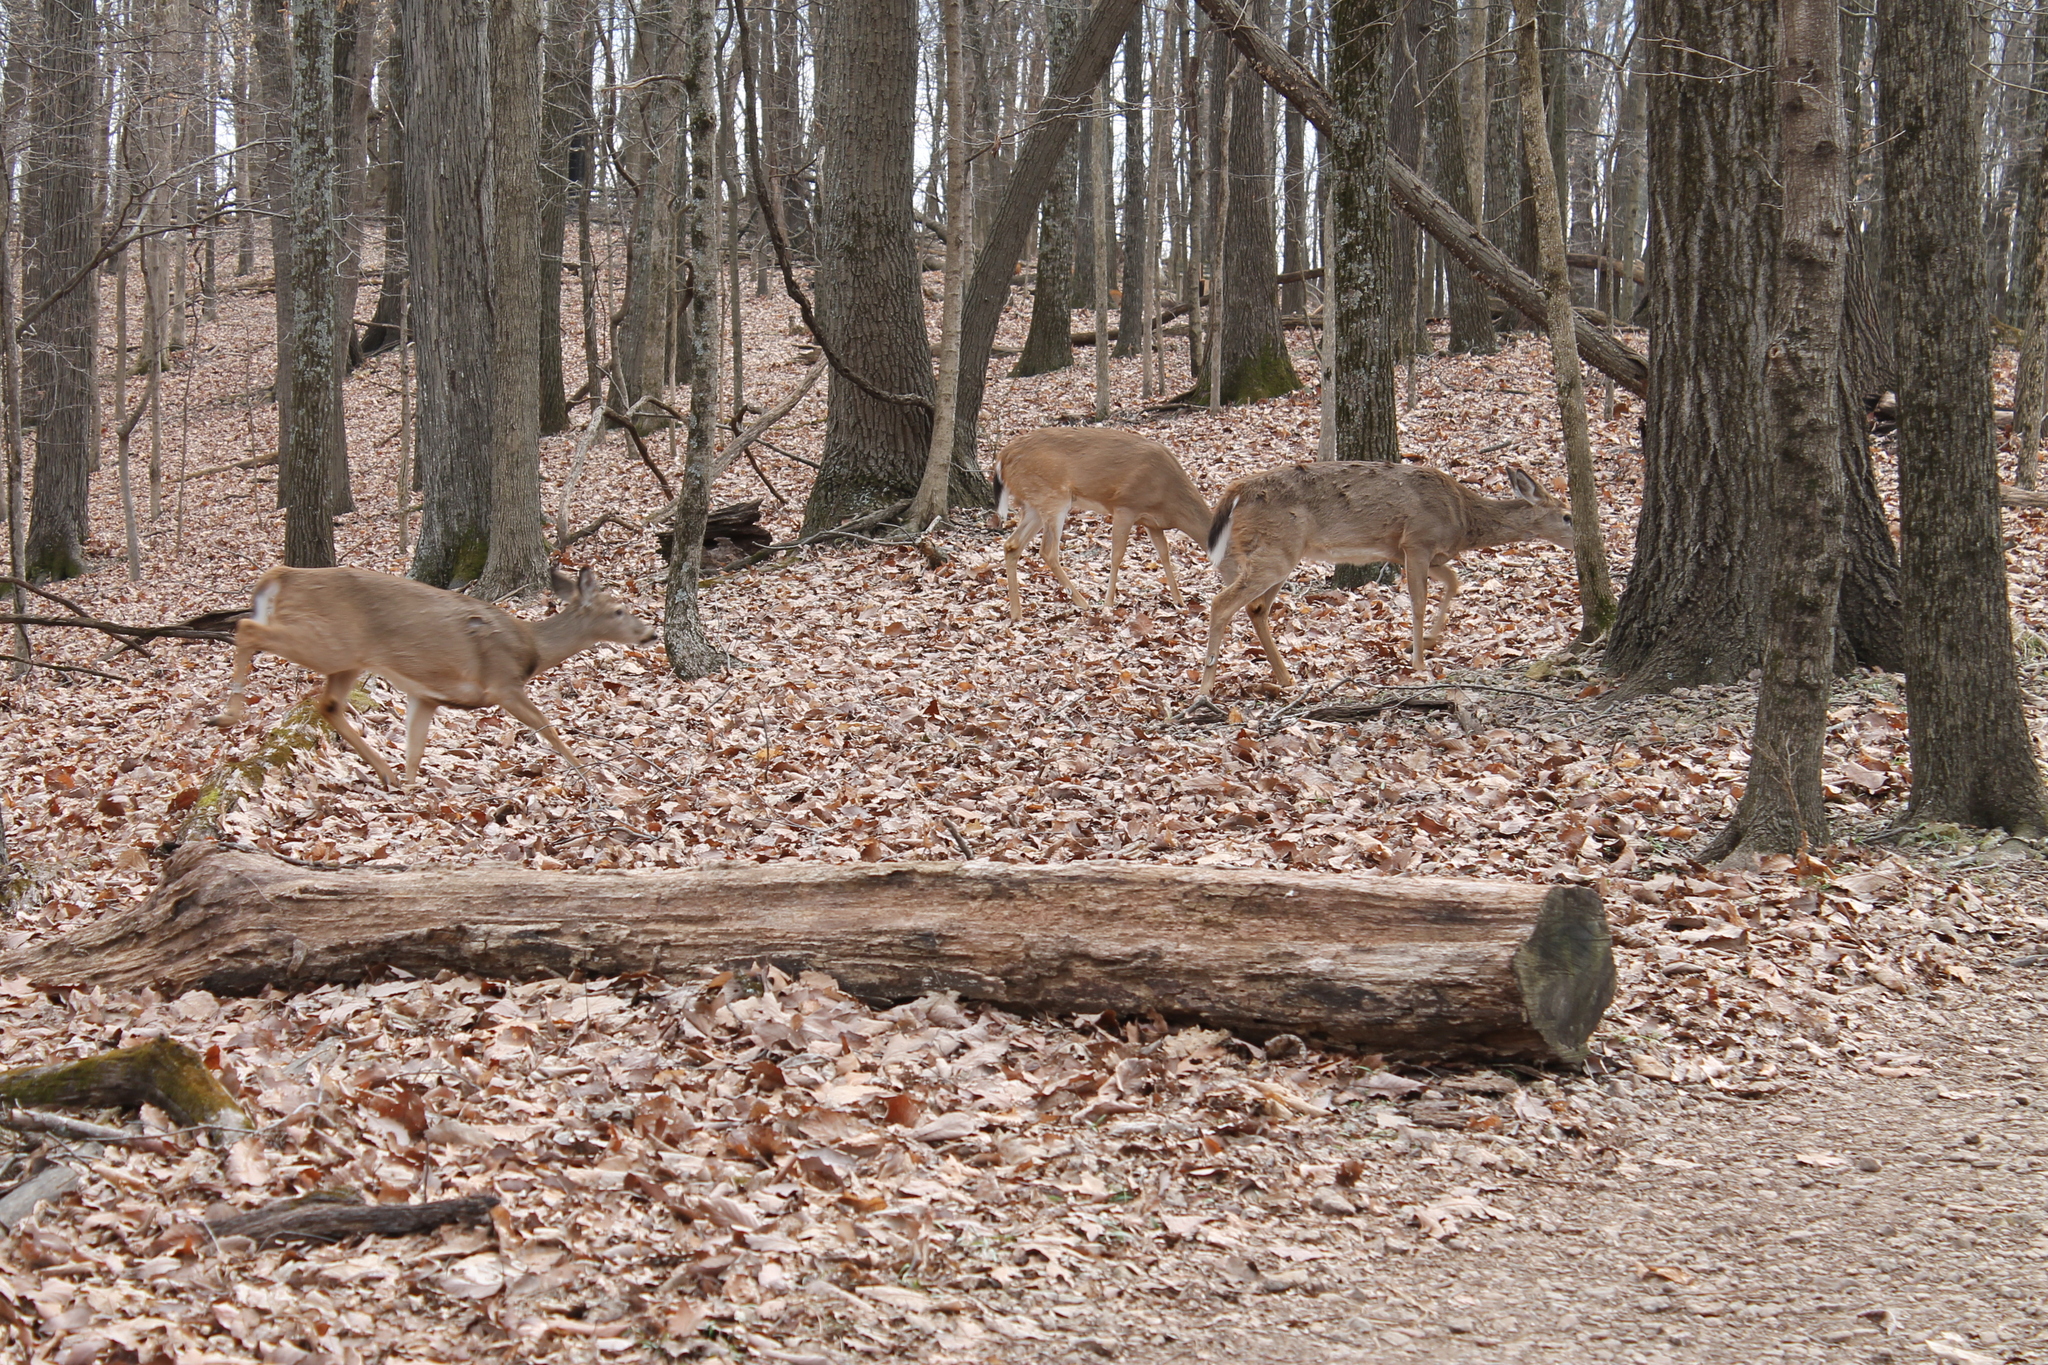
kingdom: Animalia
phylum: Chordata
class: Mammalia
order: Artiodactyla
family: Cervidae
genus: Odocoileus
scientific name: Odocoileus virginianus
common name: White-tailed deer
